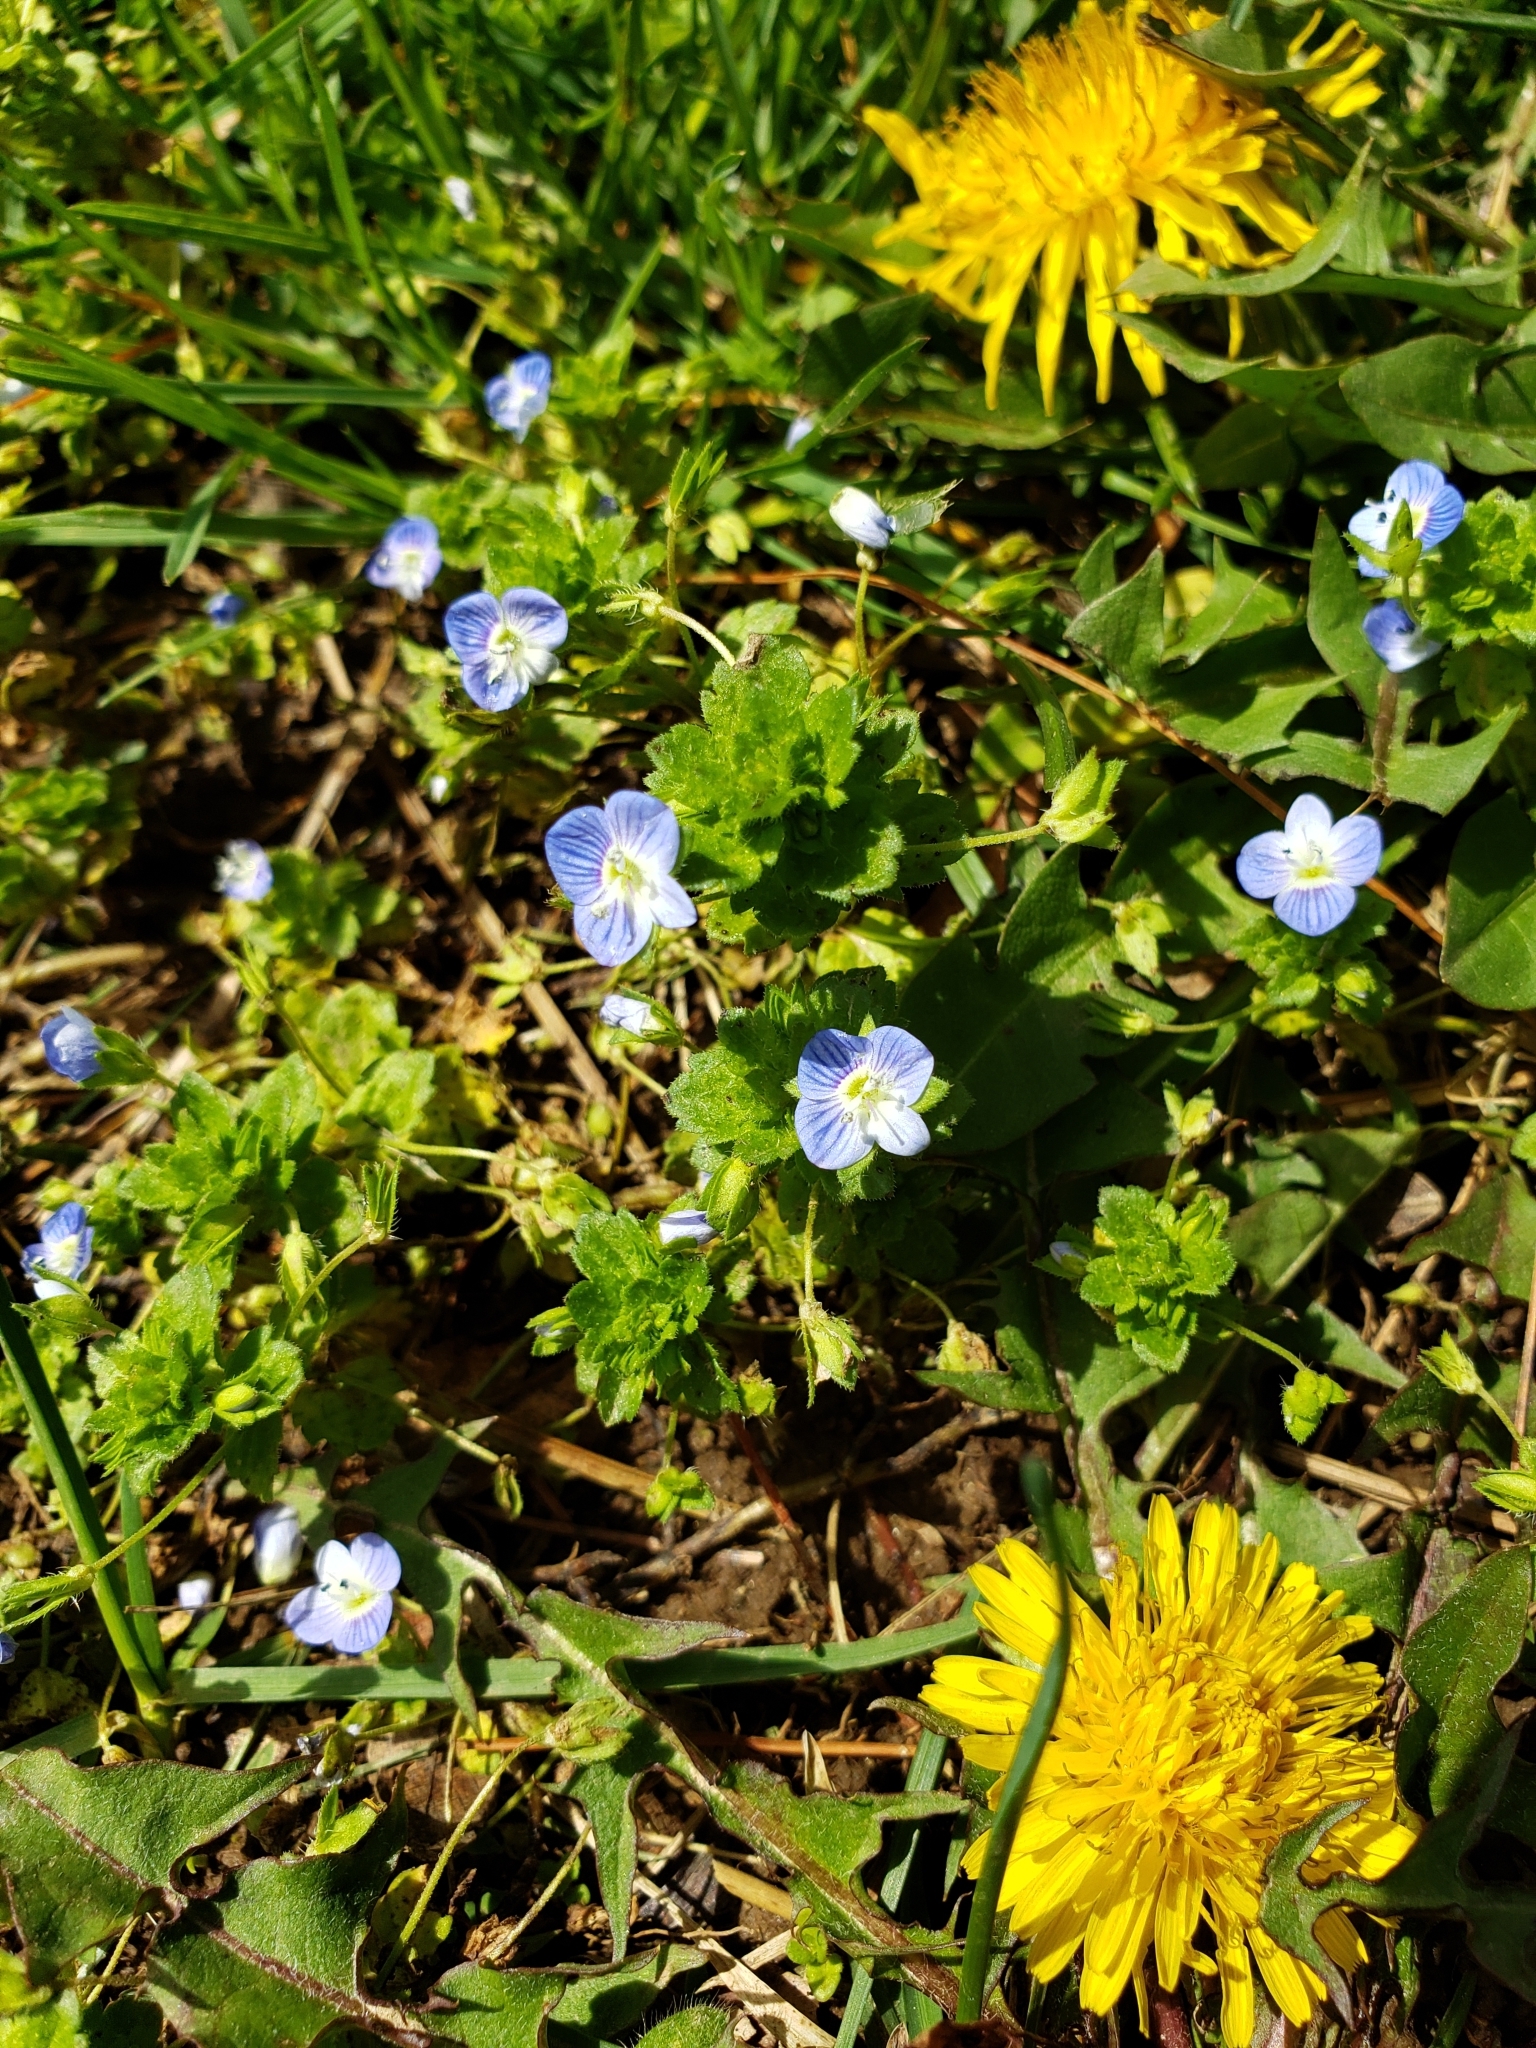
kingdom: Plantae
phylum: Tracheophyta
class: Magnoliopsida
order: Lamiales
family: Plantaginaceae
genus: Veronica
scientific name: Veronica persica
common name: Common field-speedwell
